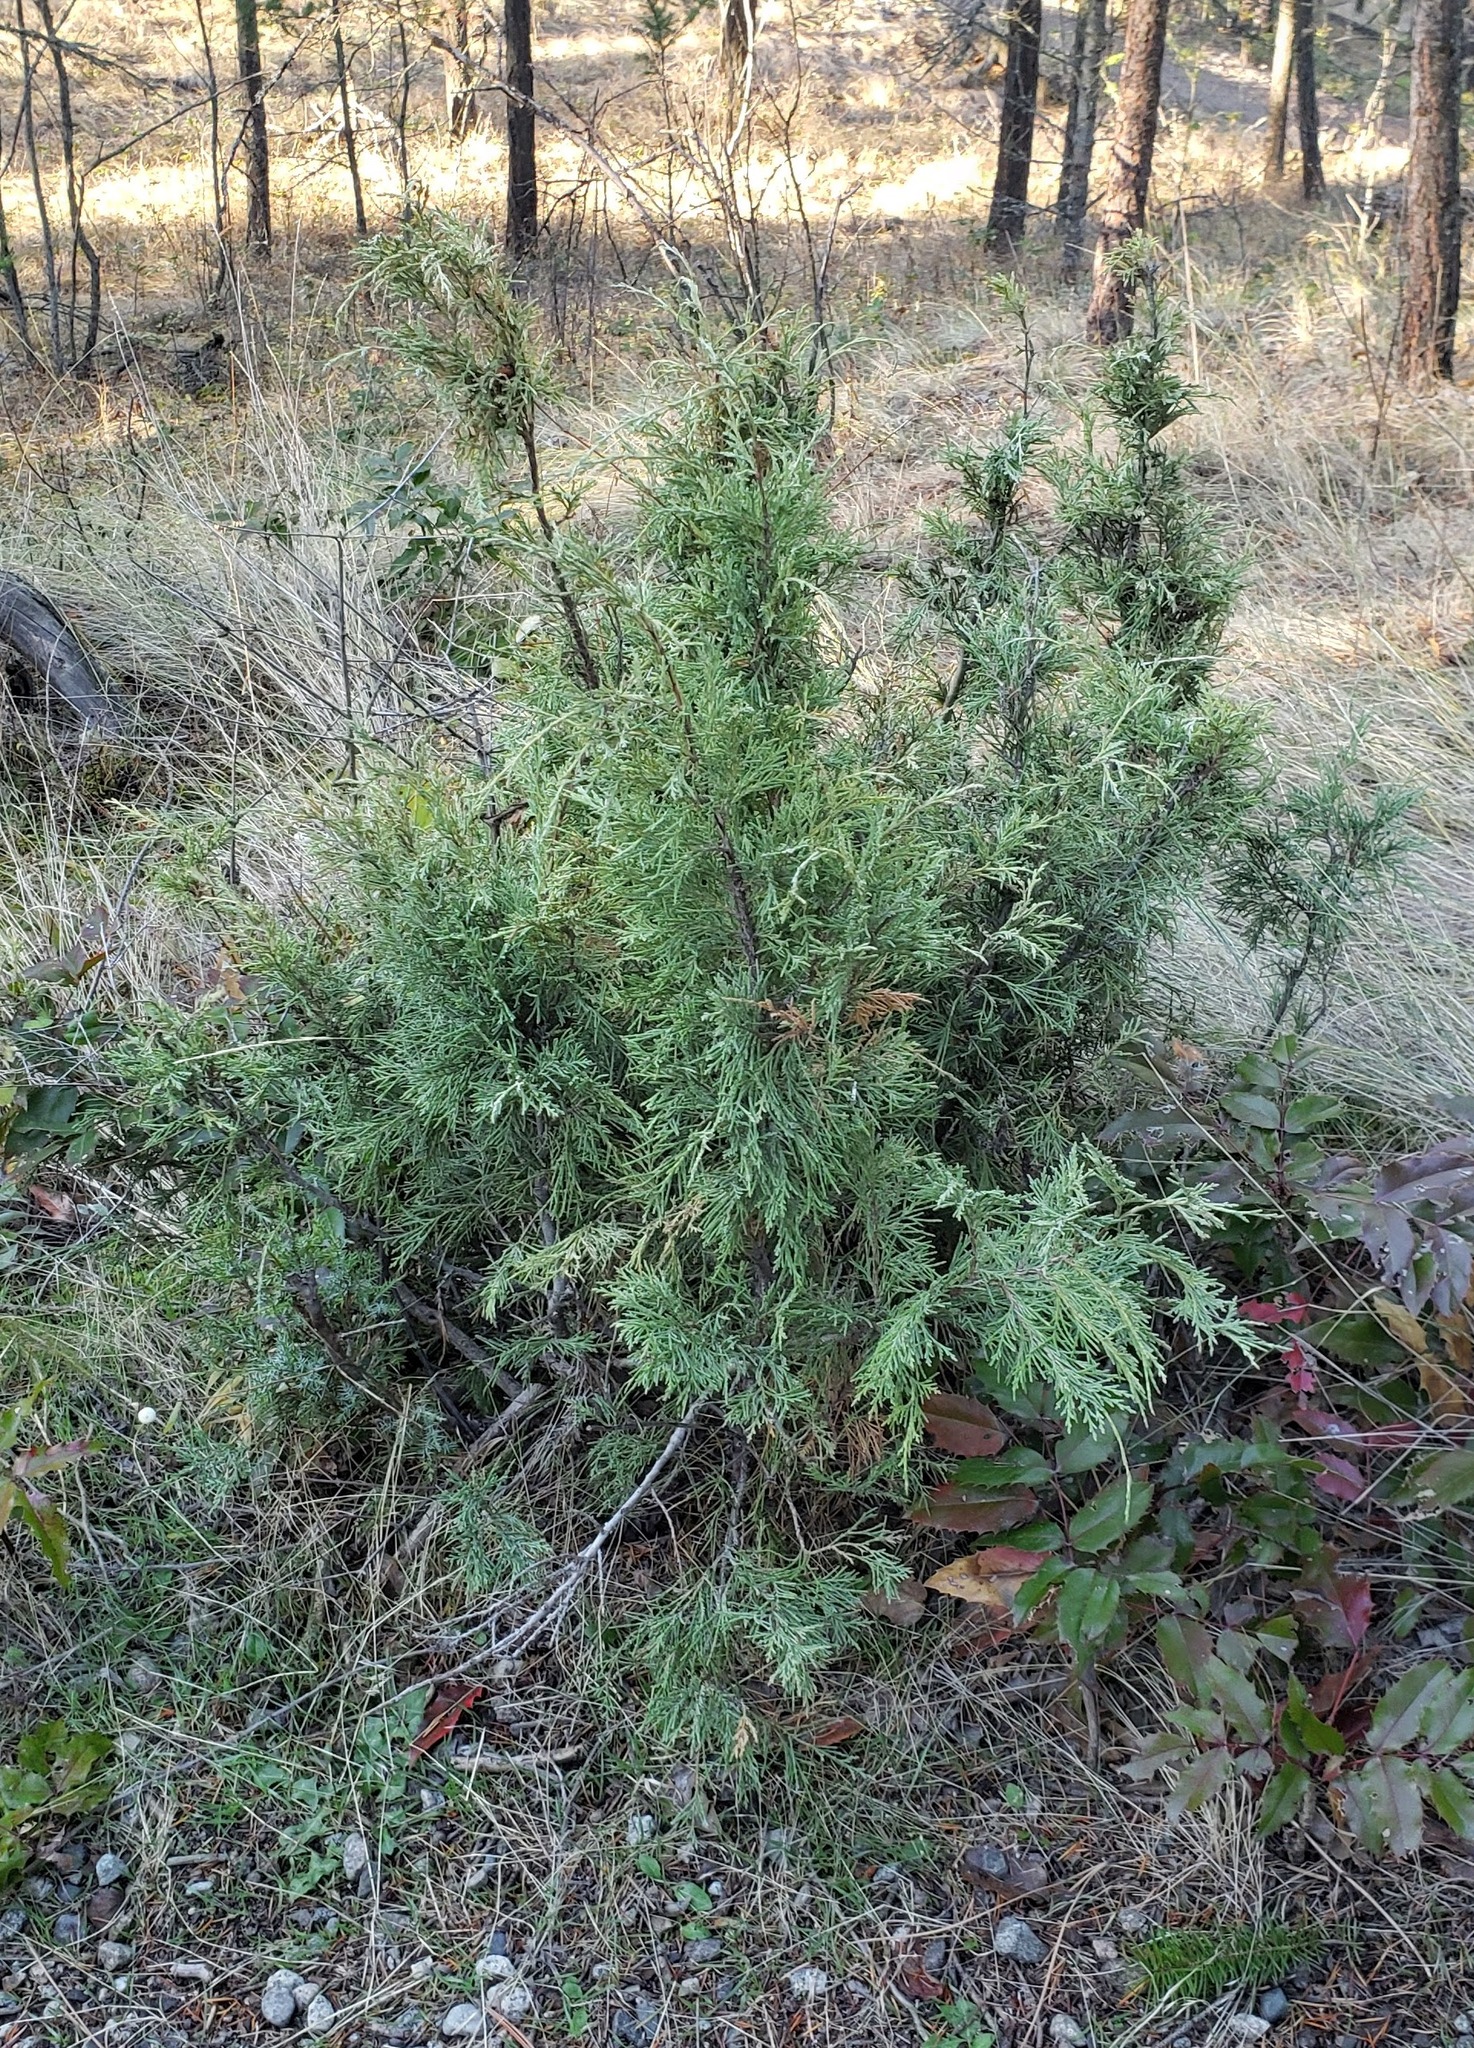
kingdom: Plantae
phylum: Tracheophyta
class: Pinopsida
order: Pinales
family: Cupressaceae
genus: Juniperus
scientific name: Juniperus scopulorum
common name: Rocky mountain juniper
